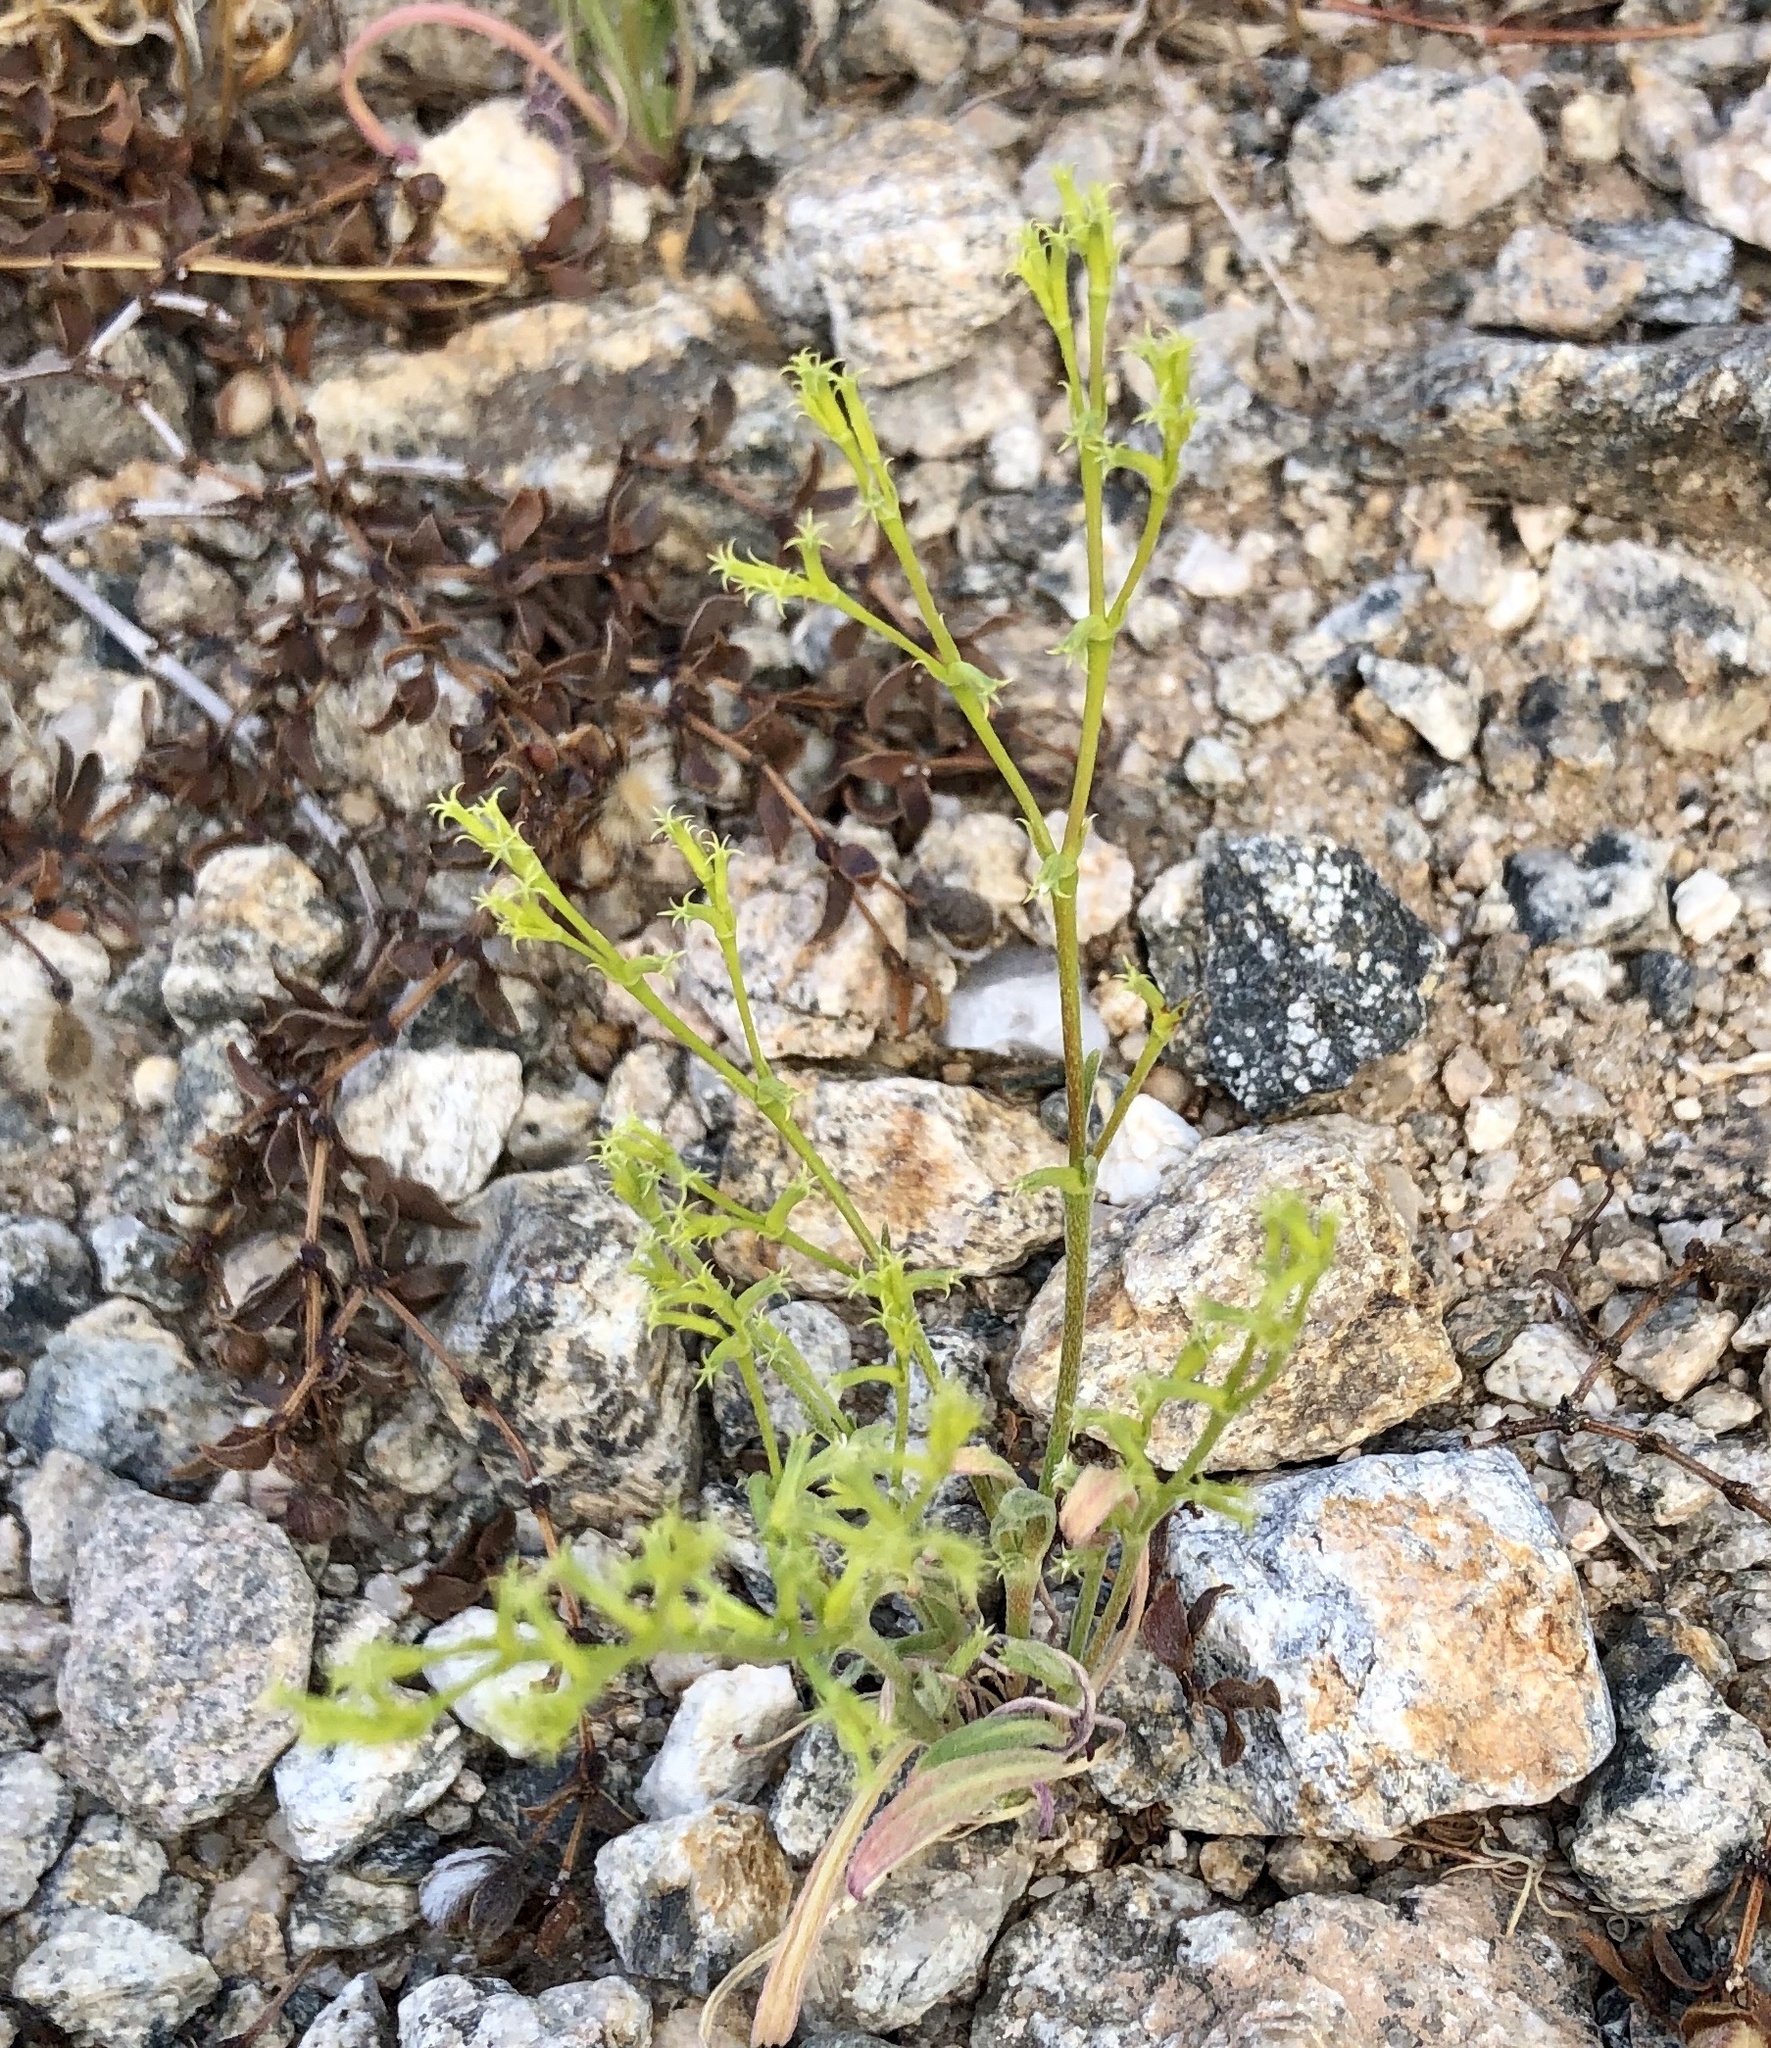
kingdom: Plantae
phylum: Tracheophyta
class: Magnoliopsida
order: Caryophyllales
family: Polygonaceae
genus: Chorizanthe
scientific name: Chorizanthe brevicornu
